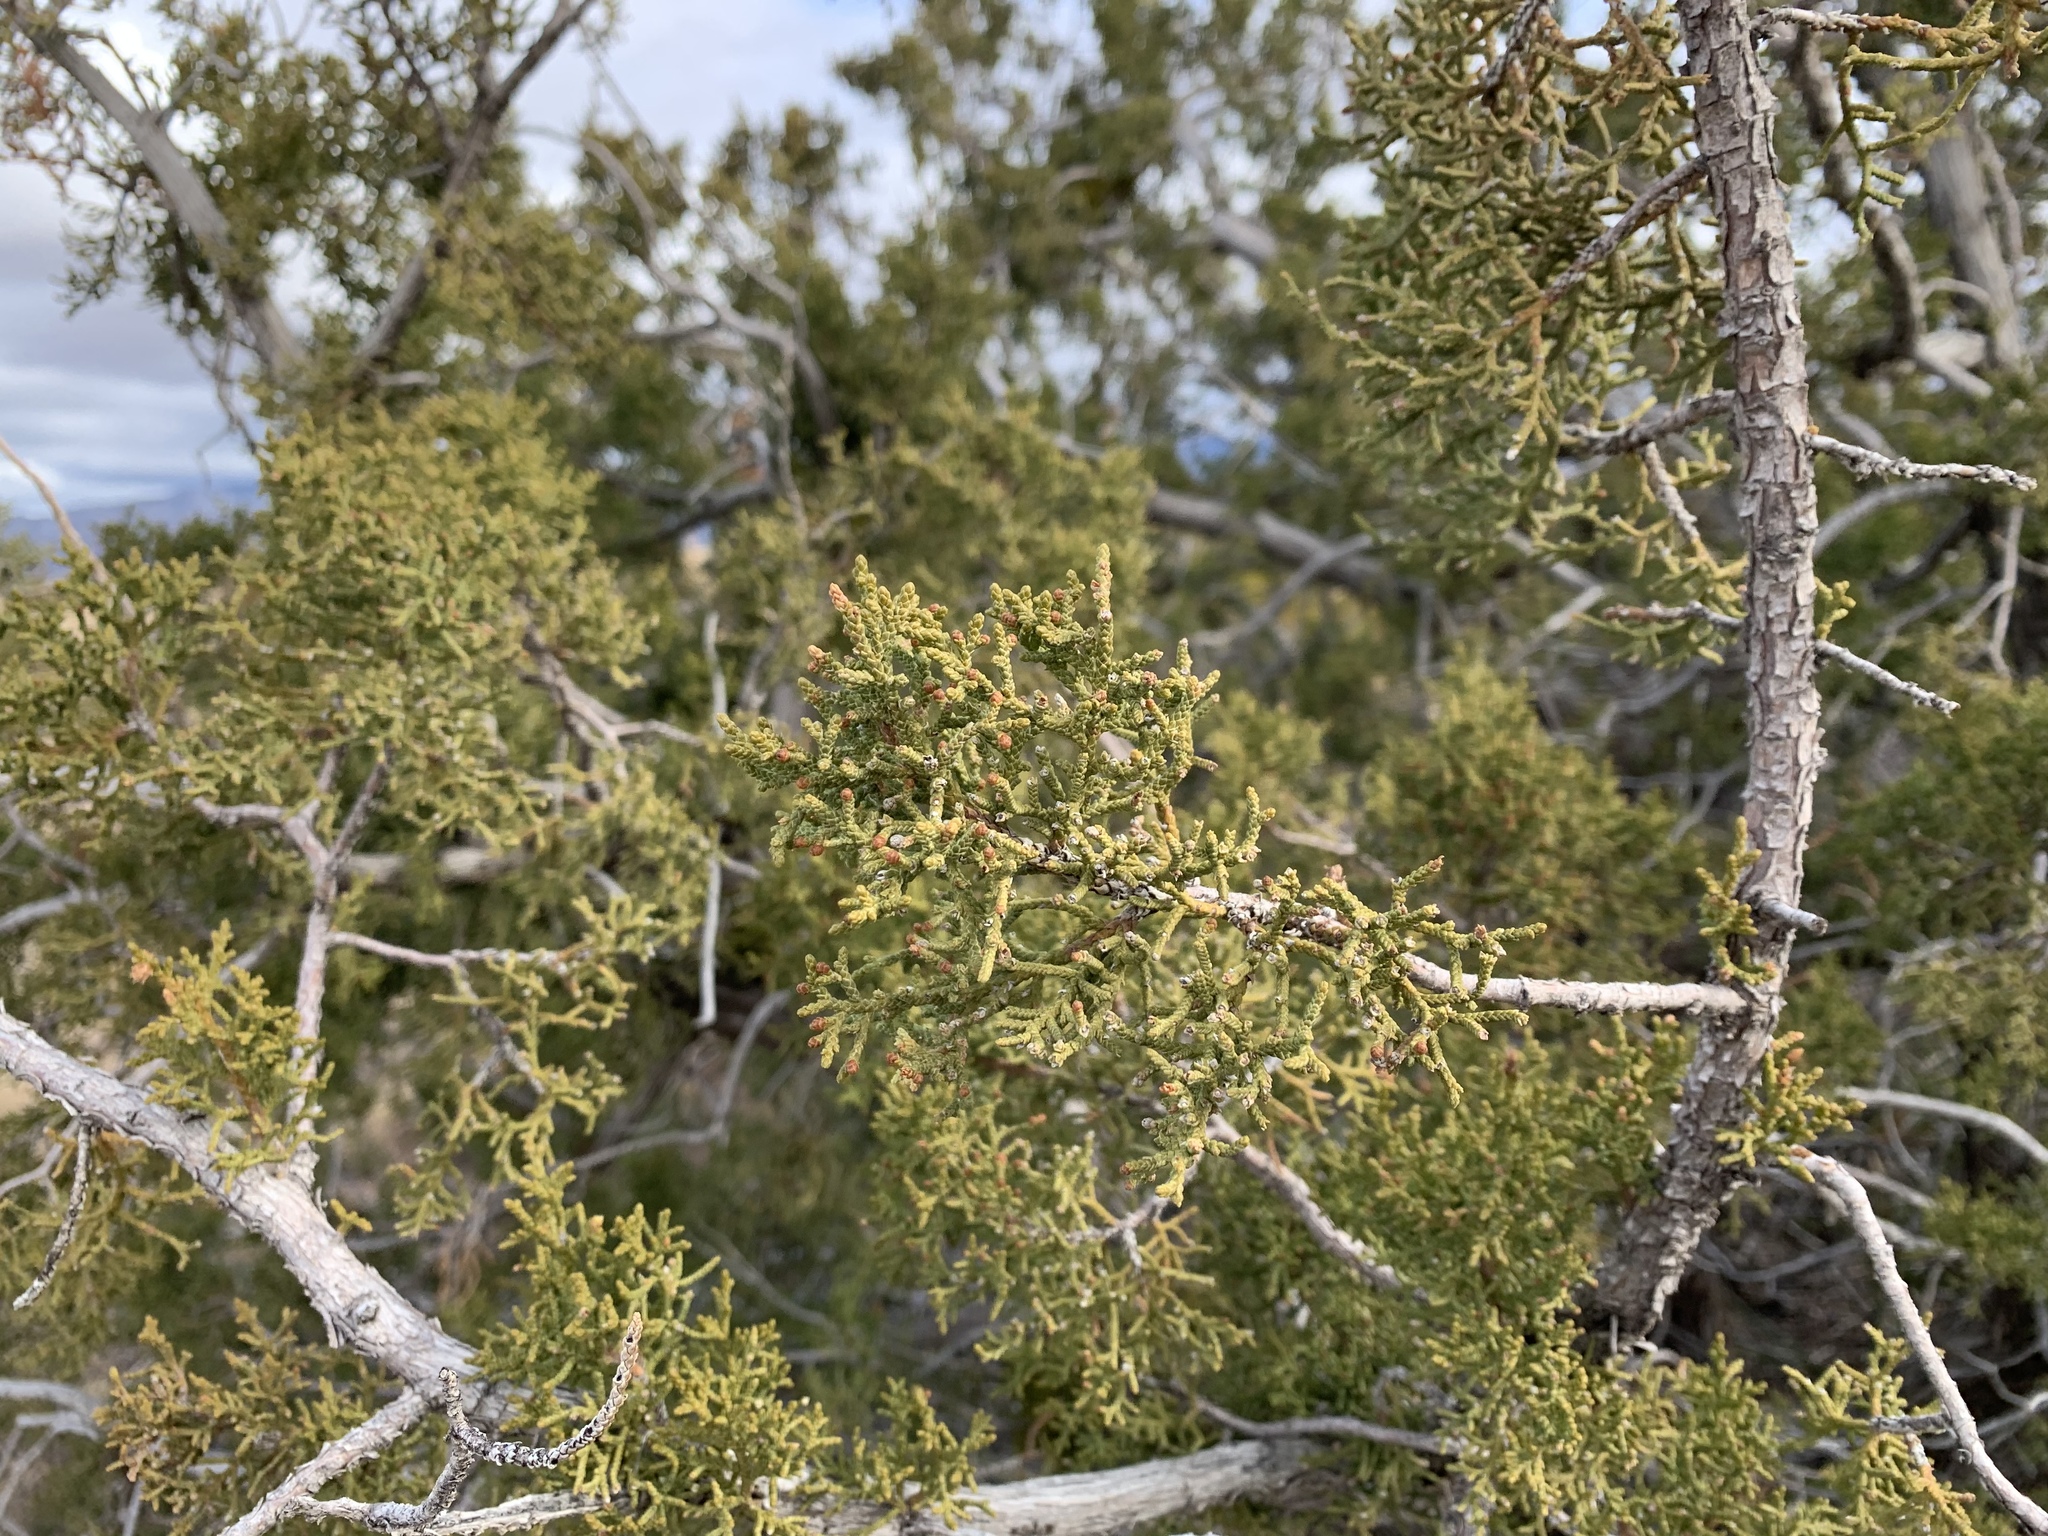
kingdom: Plantae
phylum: Tracheophyta
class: Pinopsida
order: Pinales
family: Cupressaceae
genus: Juniperus
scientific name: Juniperus monosperma
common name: One-seed juniper
